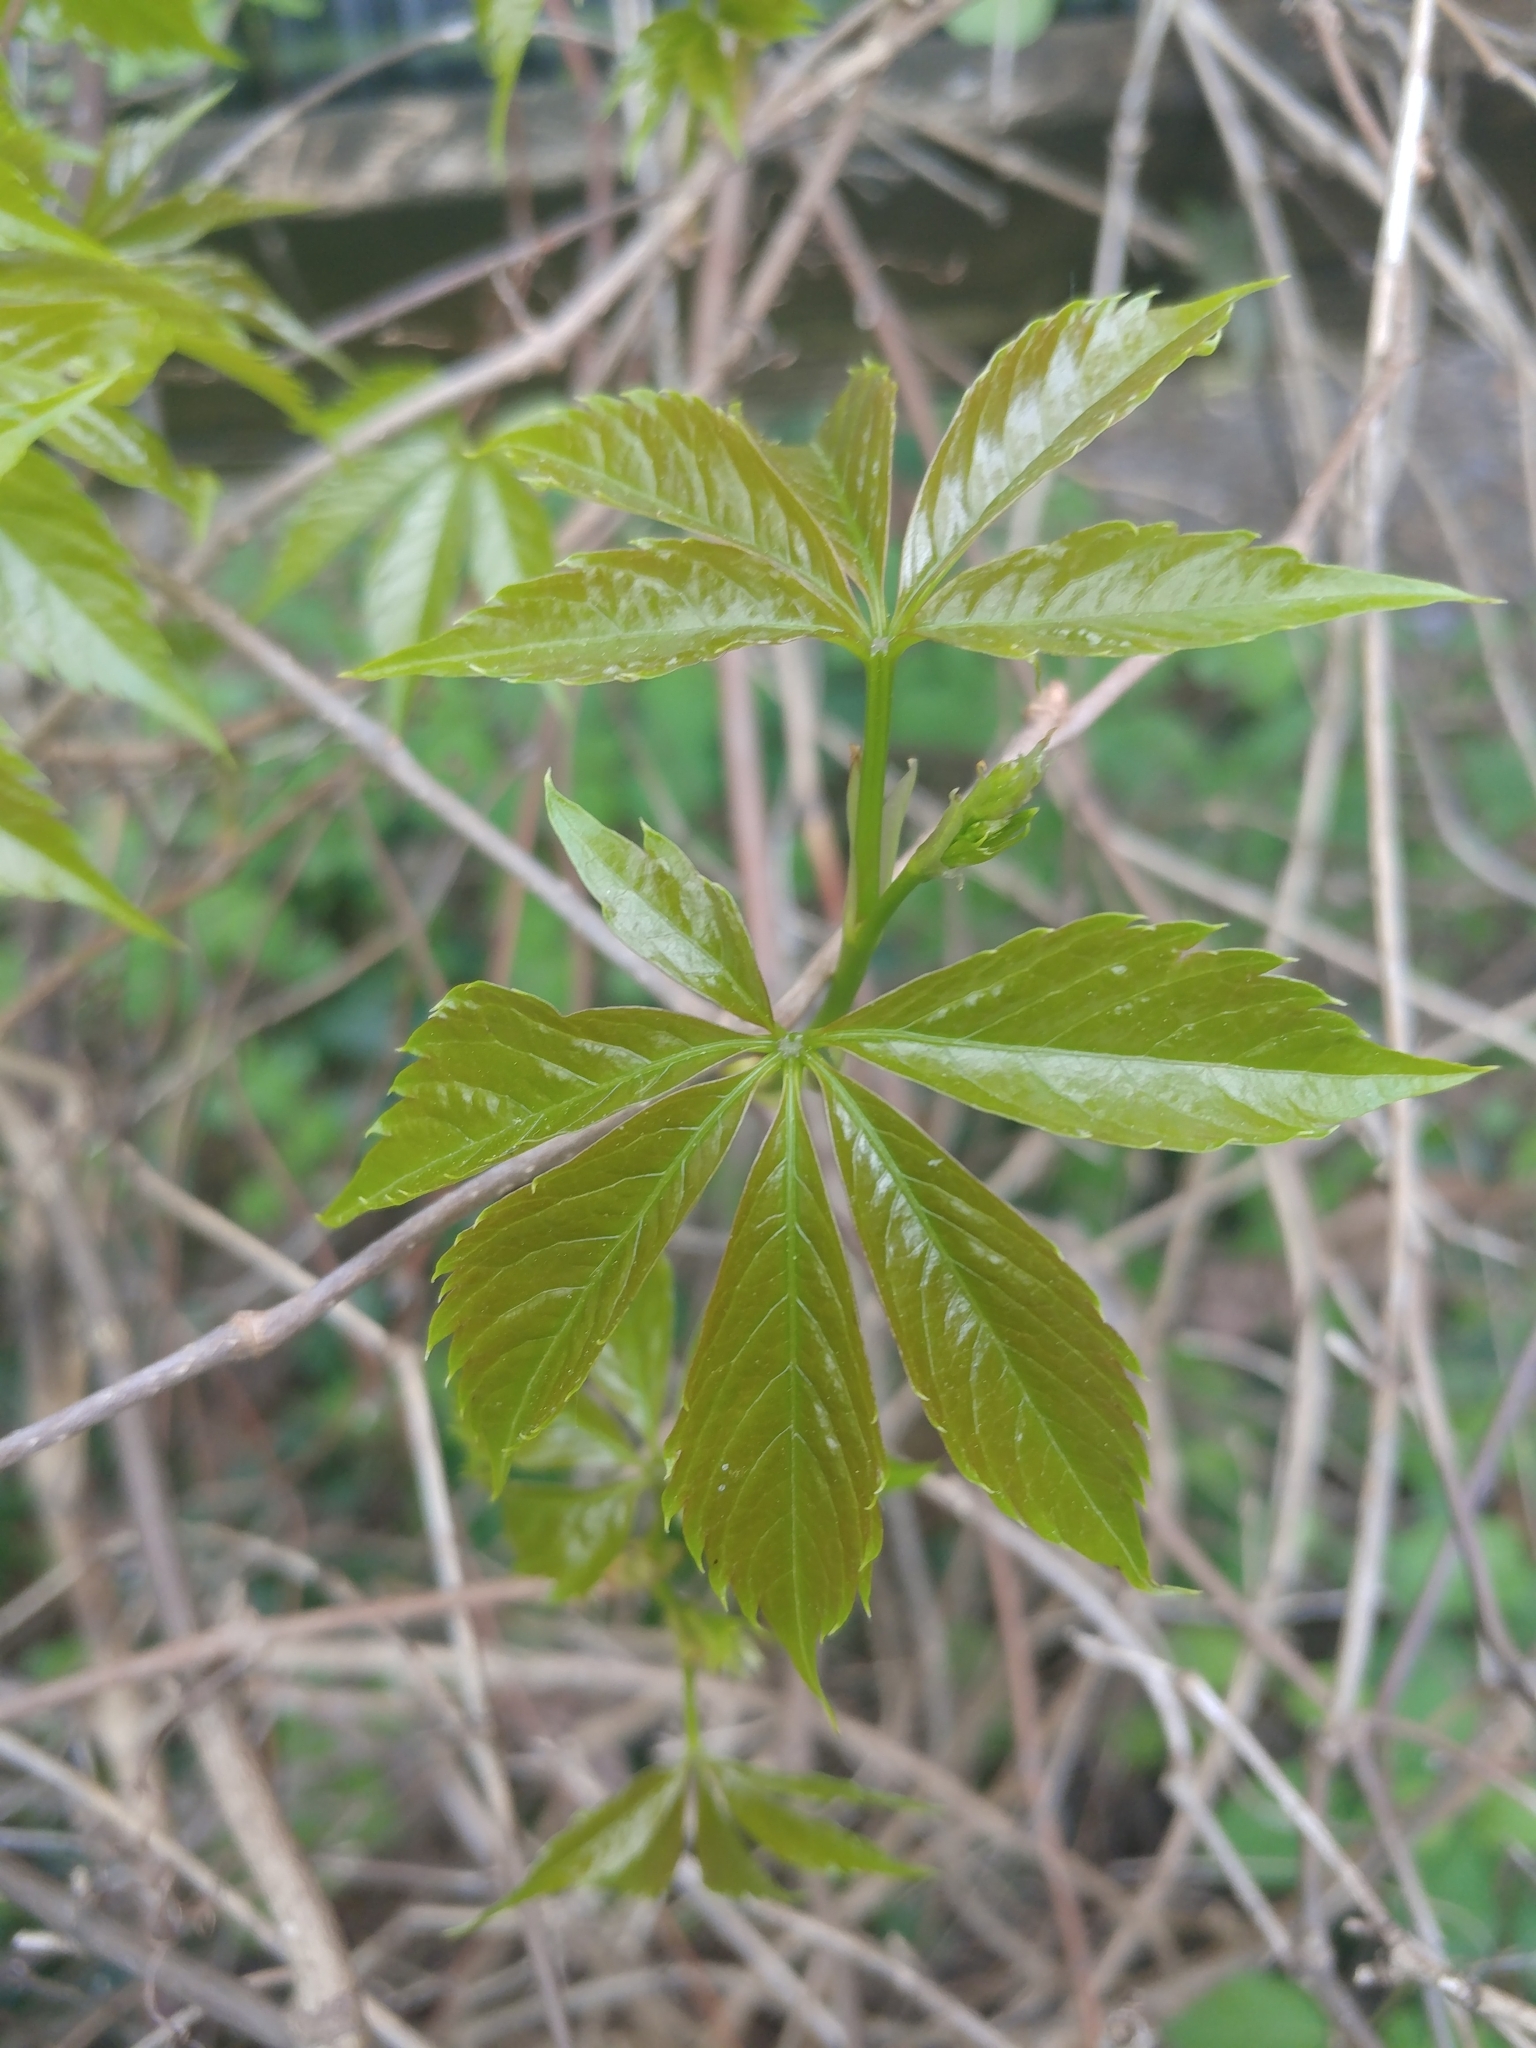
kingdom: Plantae
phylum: Tracheophyta
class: Magnoliopsida
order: Vitales
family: Vitaceae
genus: Parthenocissus
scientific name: Parthenocissus quinquefolia
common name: Virginia-creeper
